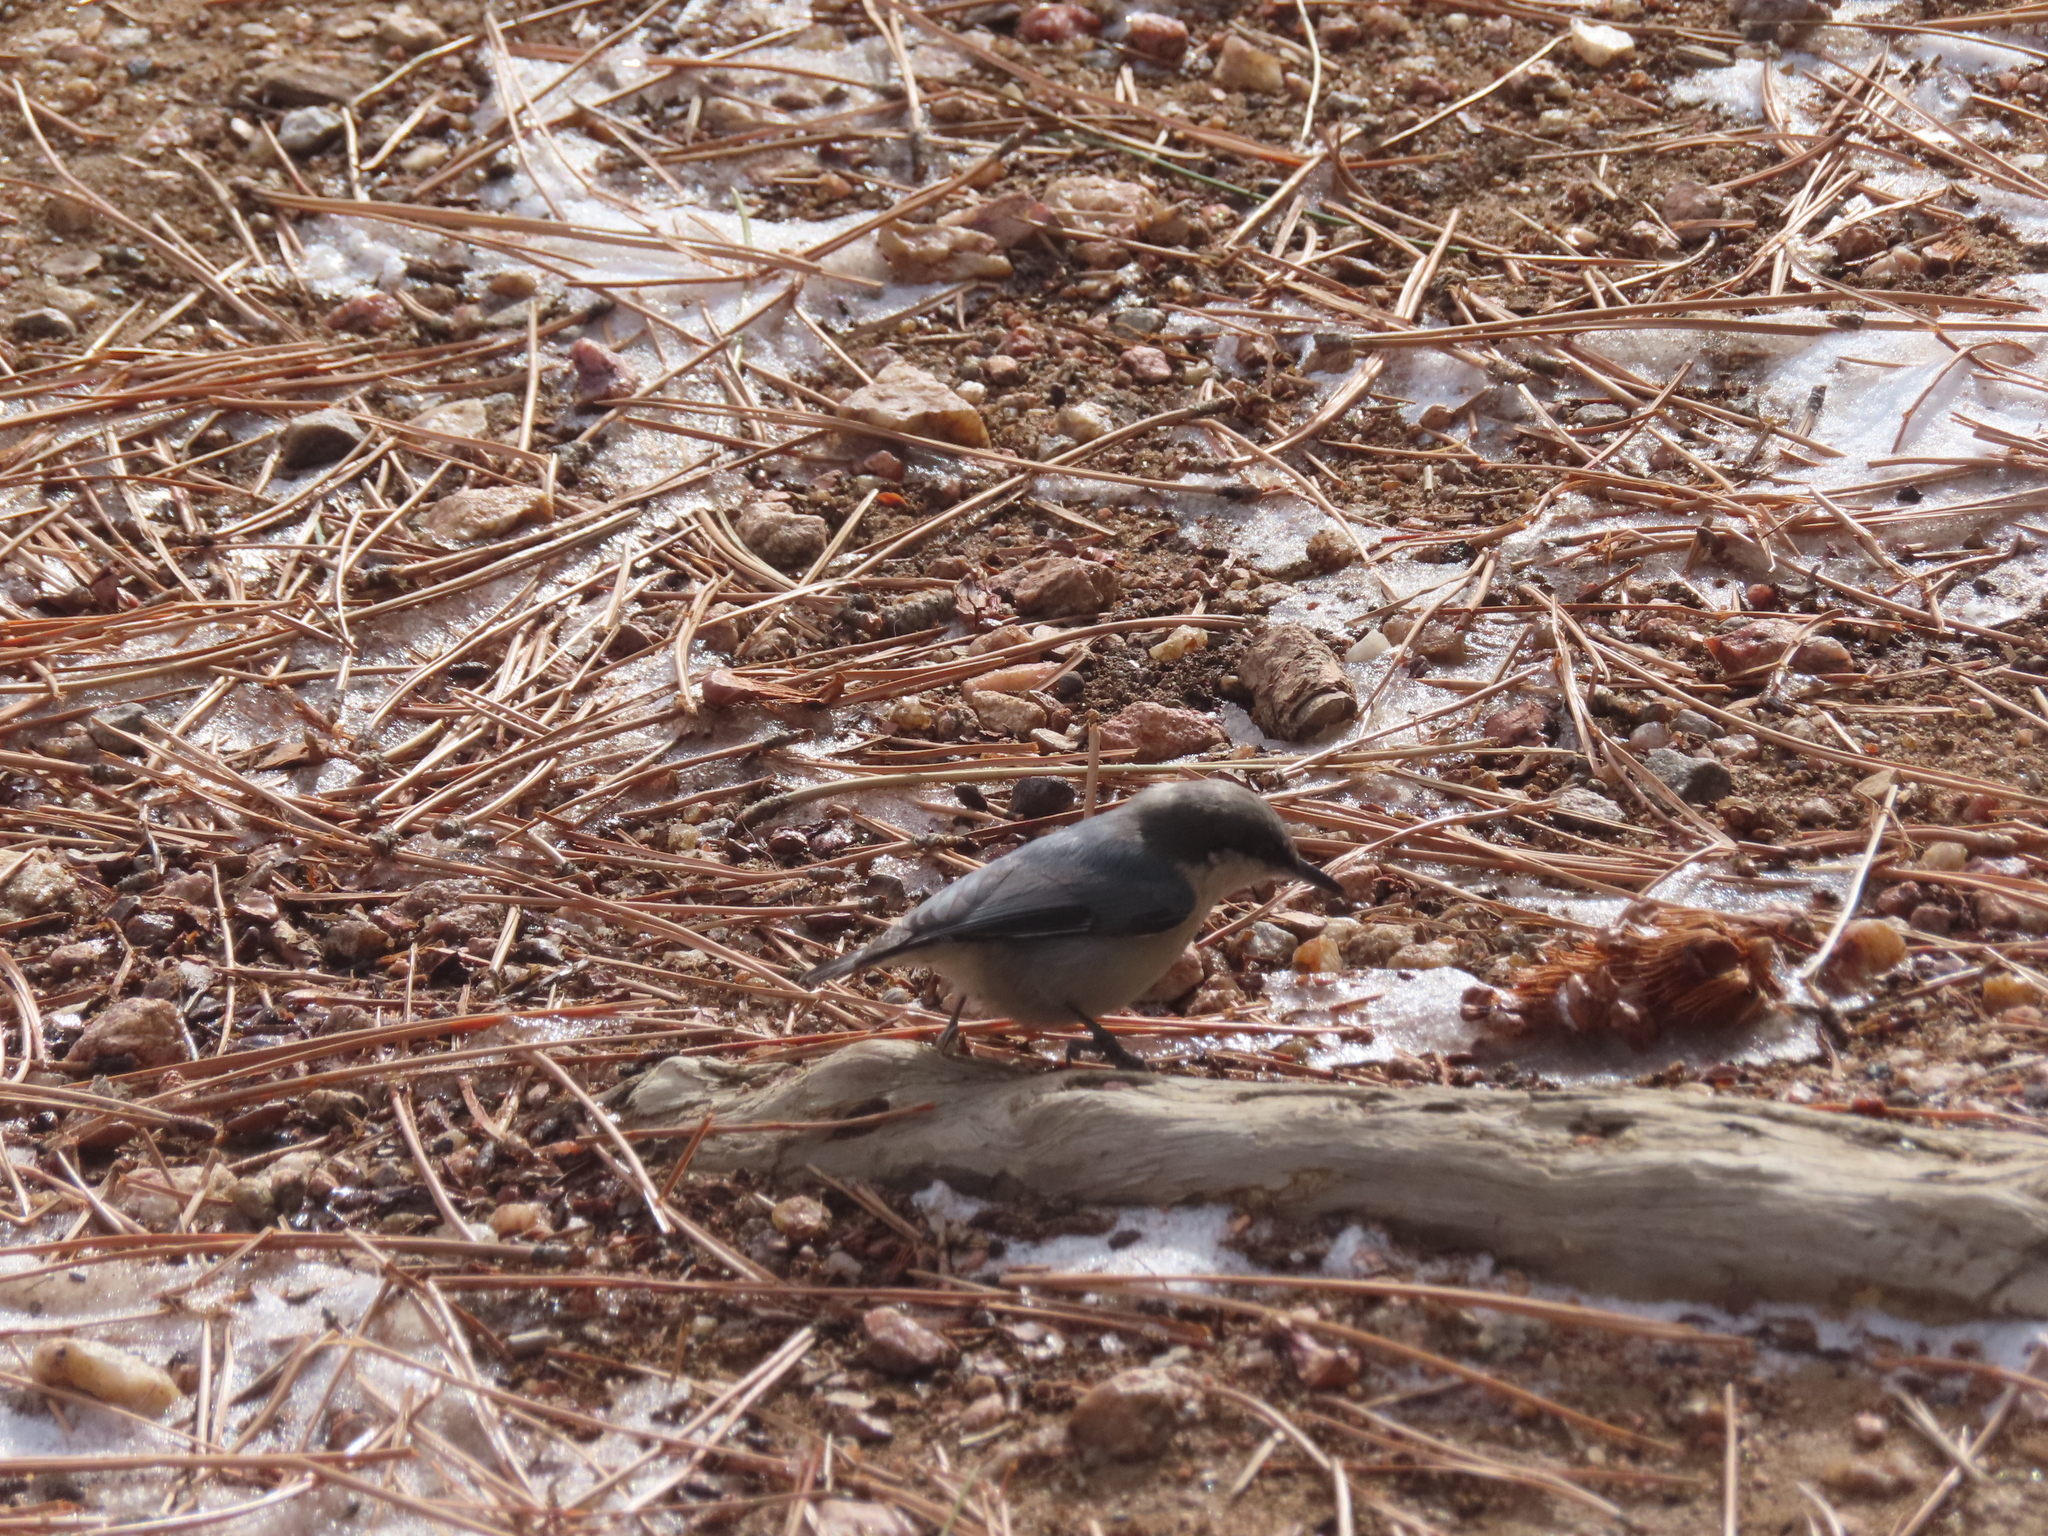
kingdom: Animalia
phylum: Chordata
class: Aves
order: Passeriformes
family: Sittidae
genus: Sitta
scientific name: Sitta pygmaea
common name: Pygmy nuthatch
